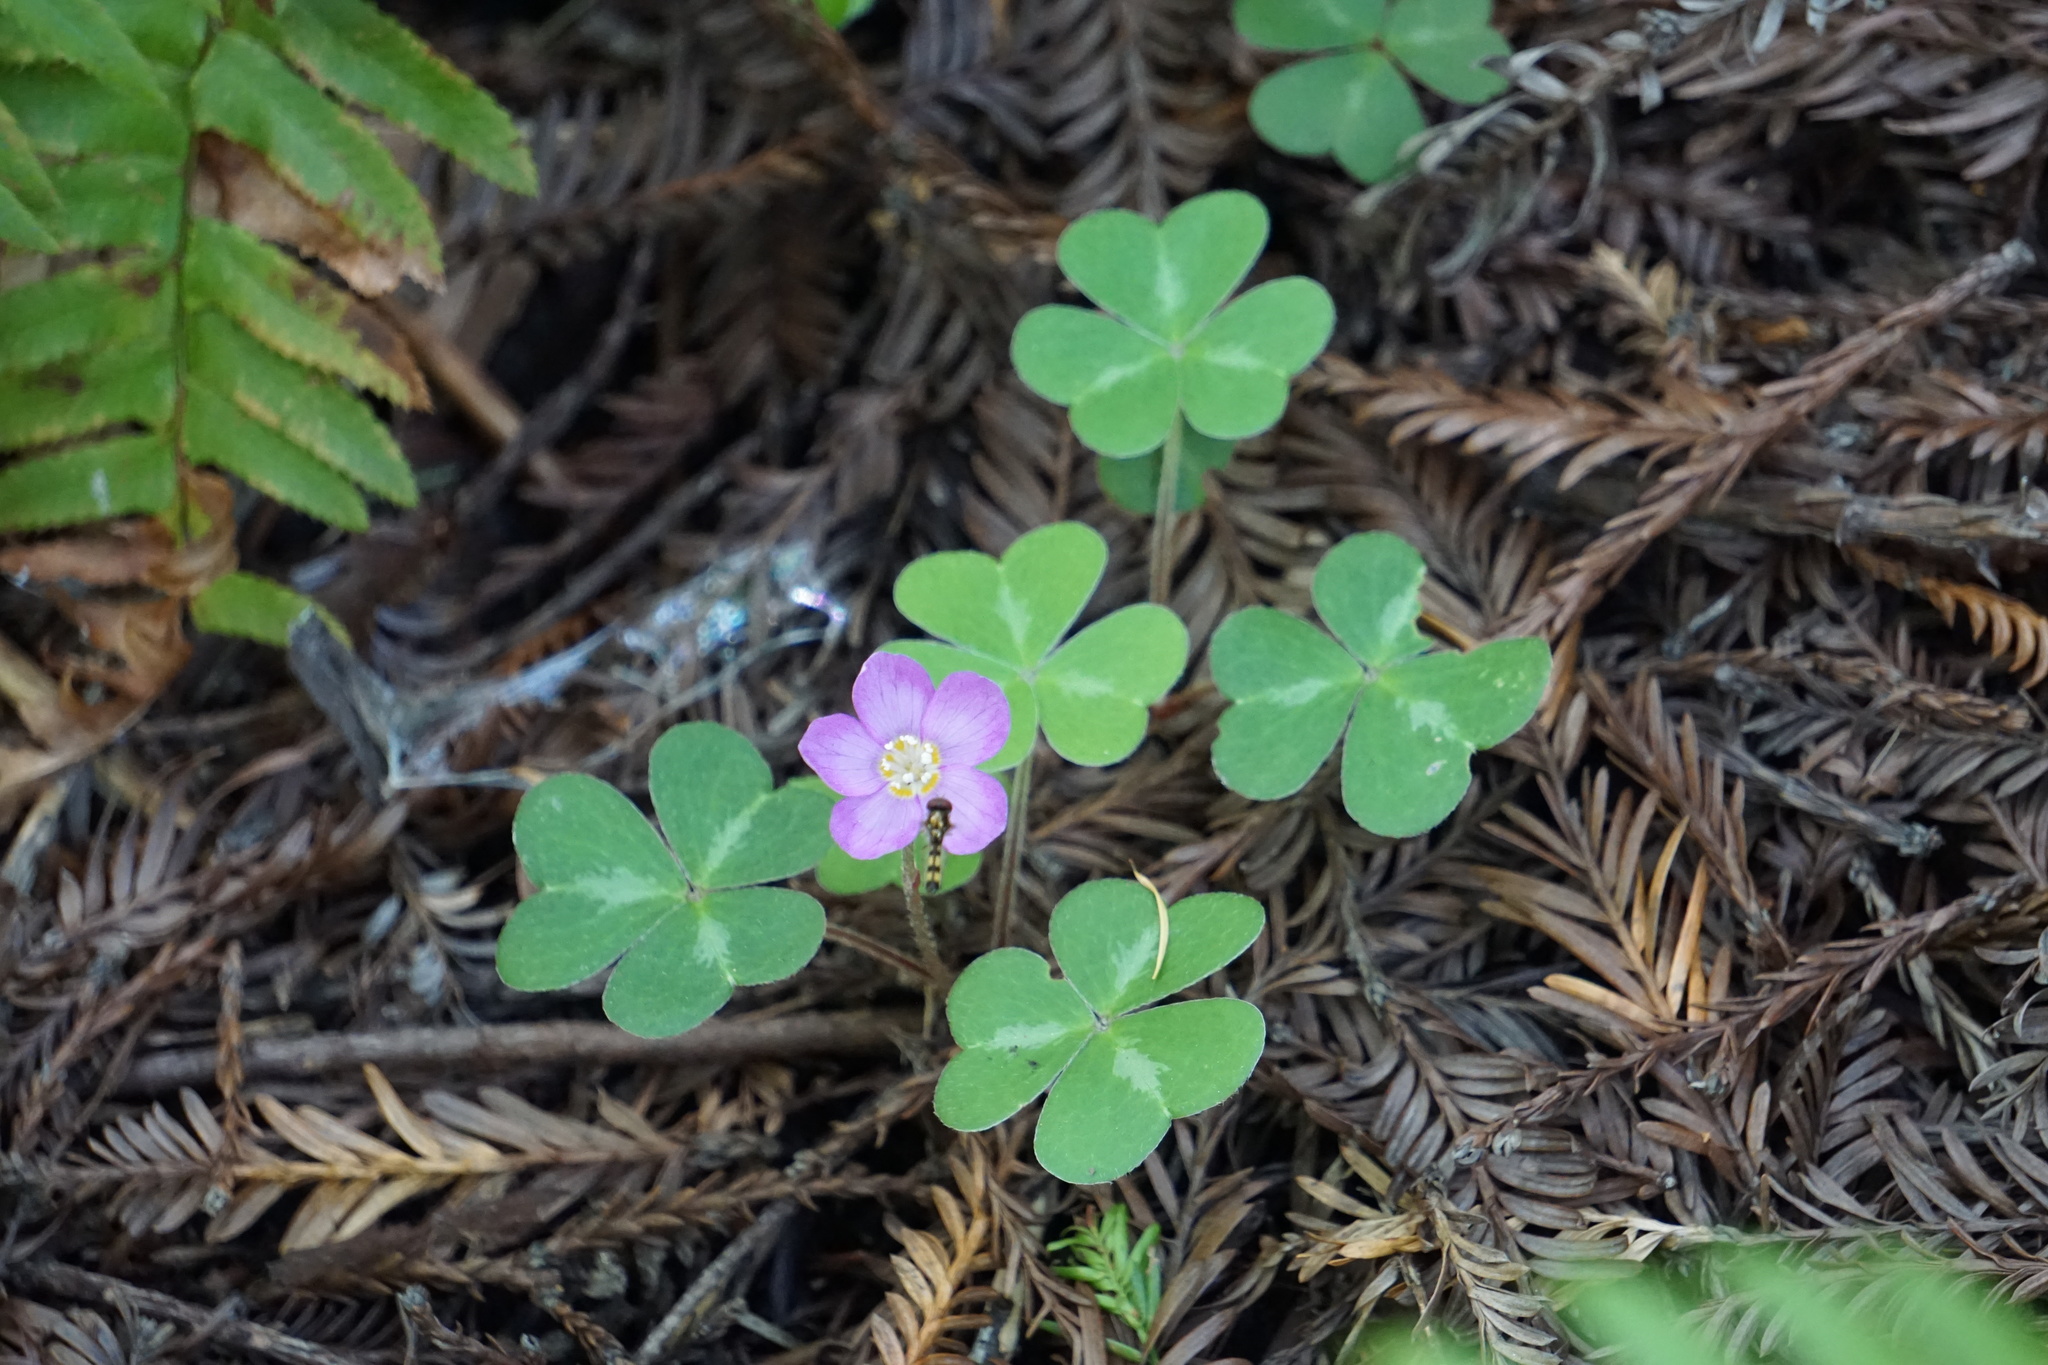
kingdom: Plantae
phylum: Tracheophyta
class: Magnoliopsida
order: Oxalidales
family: Oxalidaceae
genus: Oxalis
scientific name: Oxalis oregana
